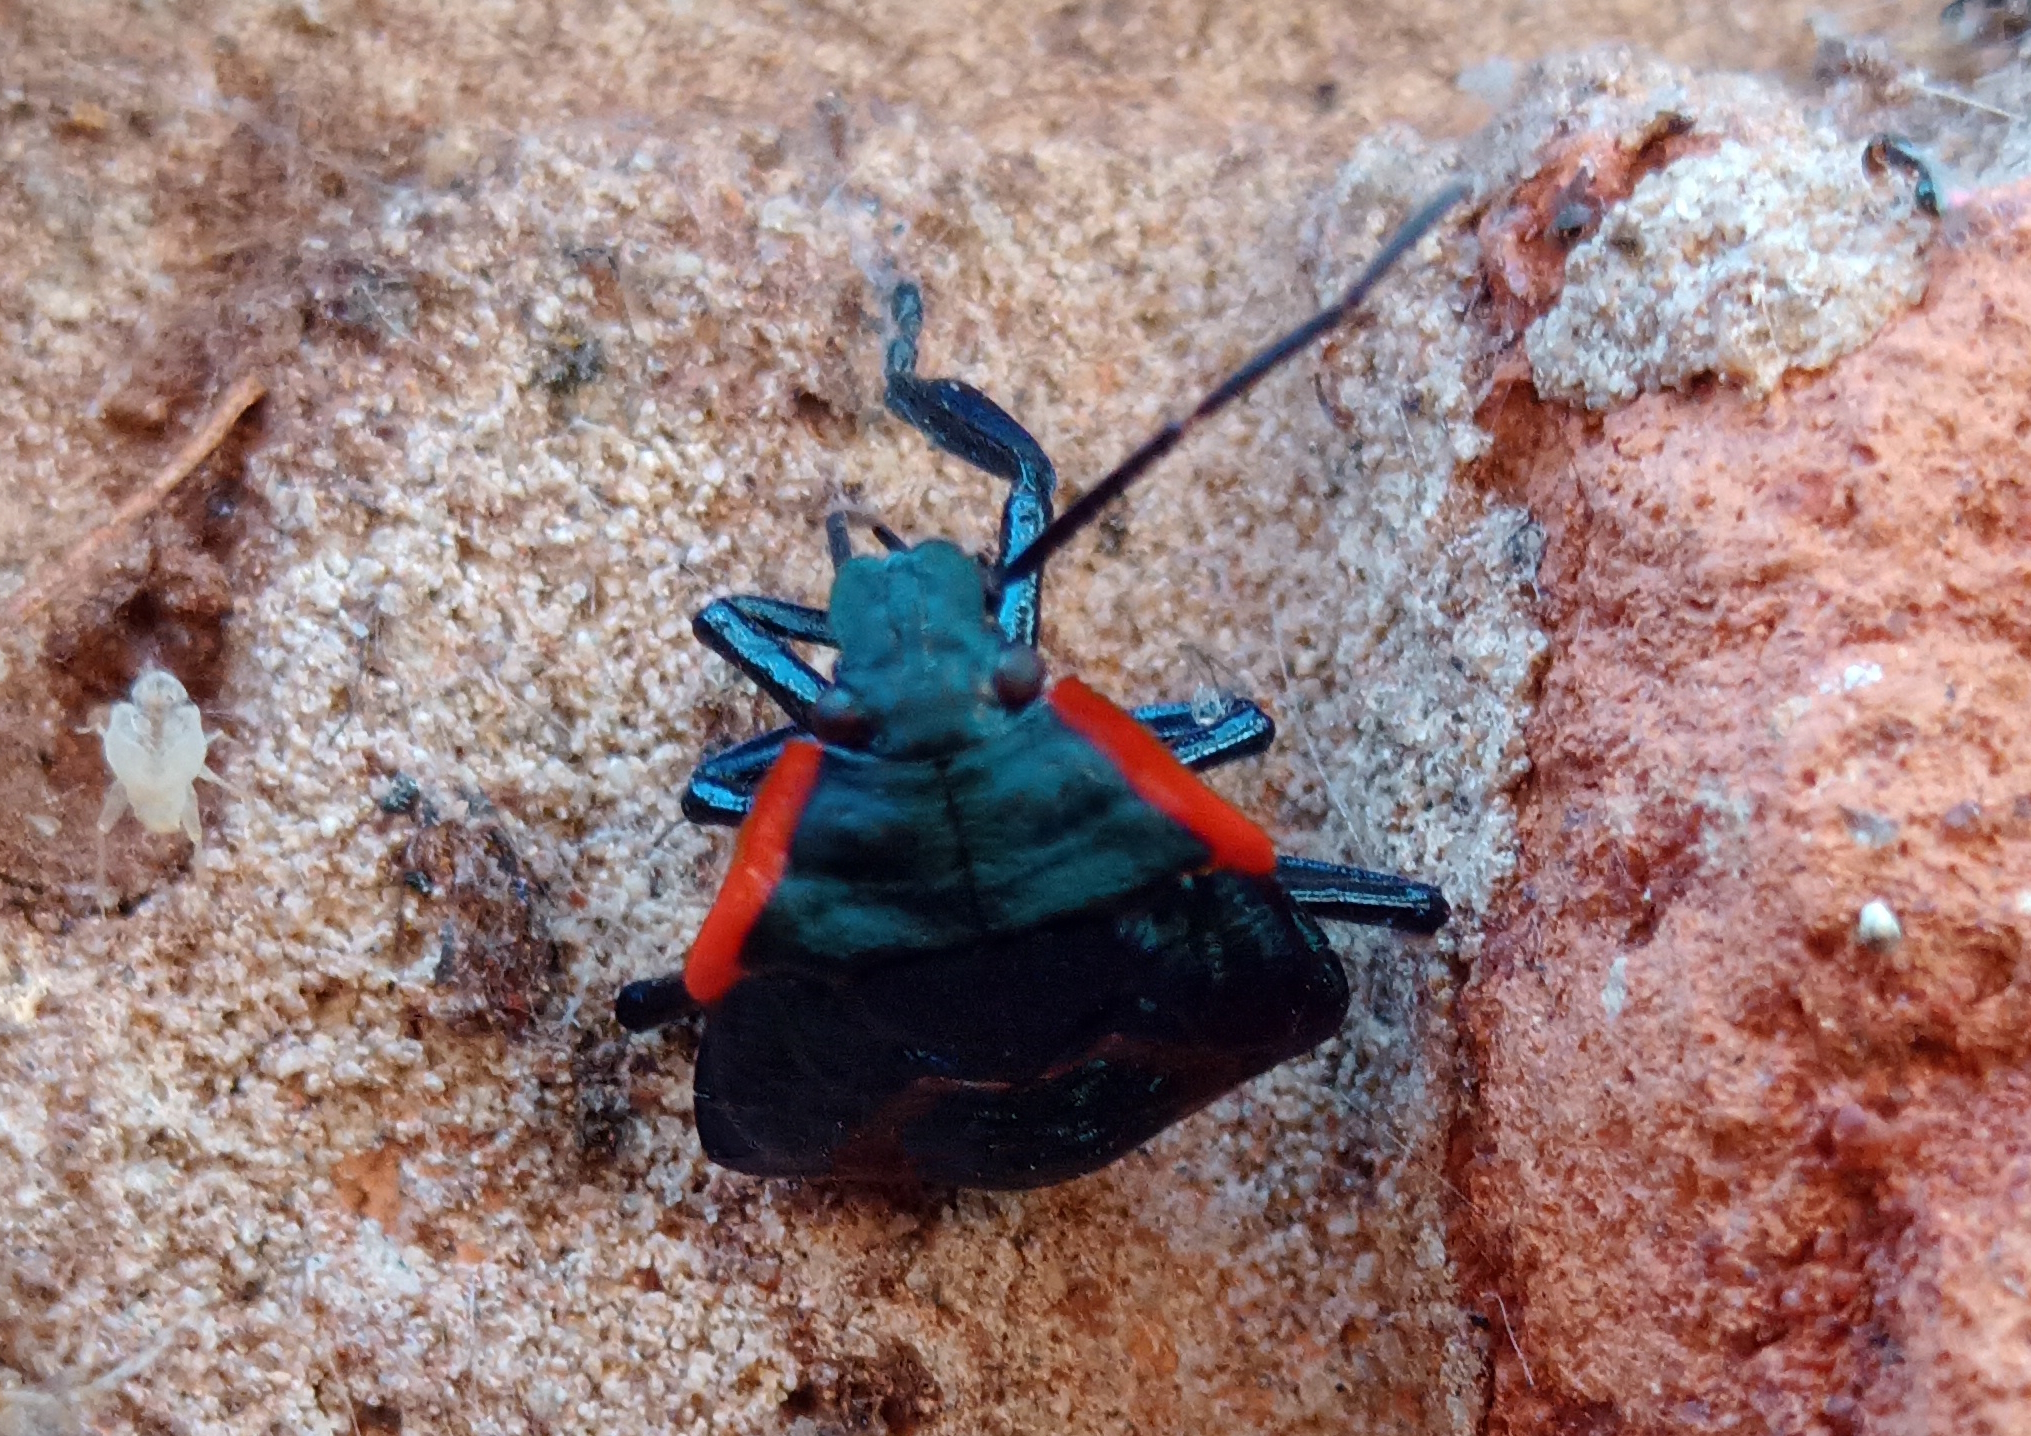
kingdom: Animalia
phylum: Arthropoda
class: Insecta
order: Hemiptera
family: Pentatomidae
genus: Alcaeorrhynchus
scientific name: Alcaeorrhynchus grandis
